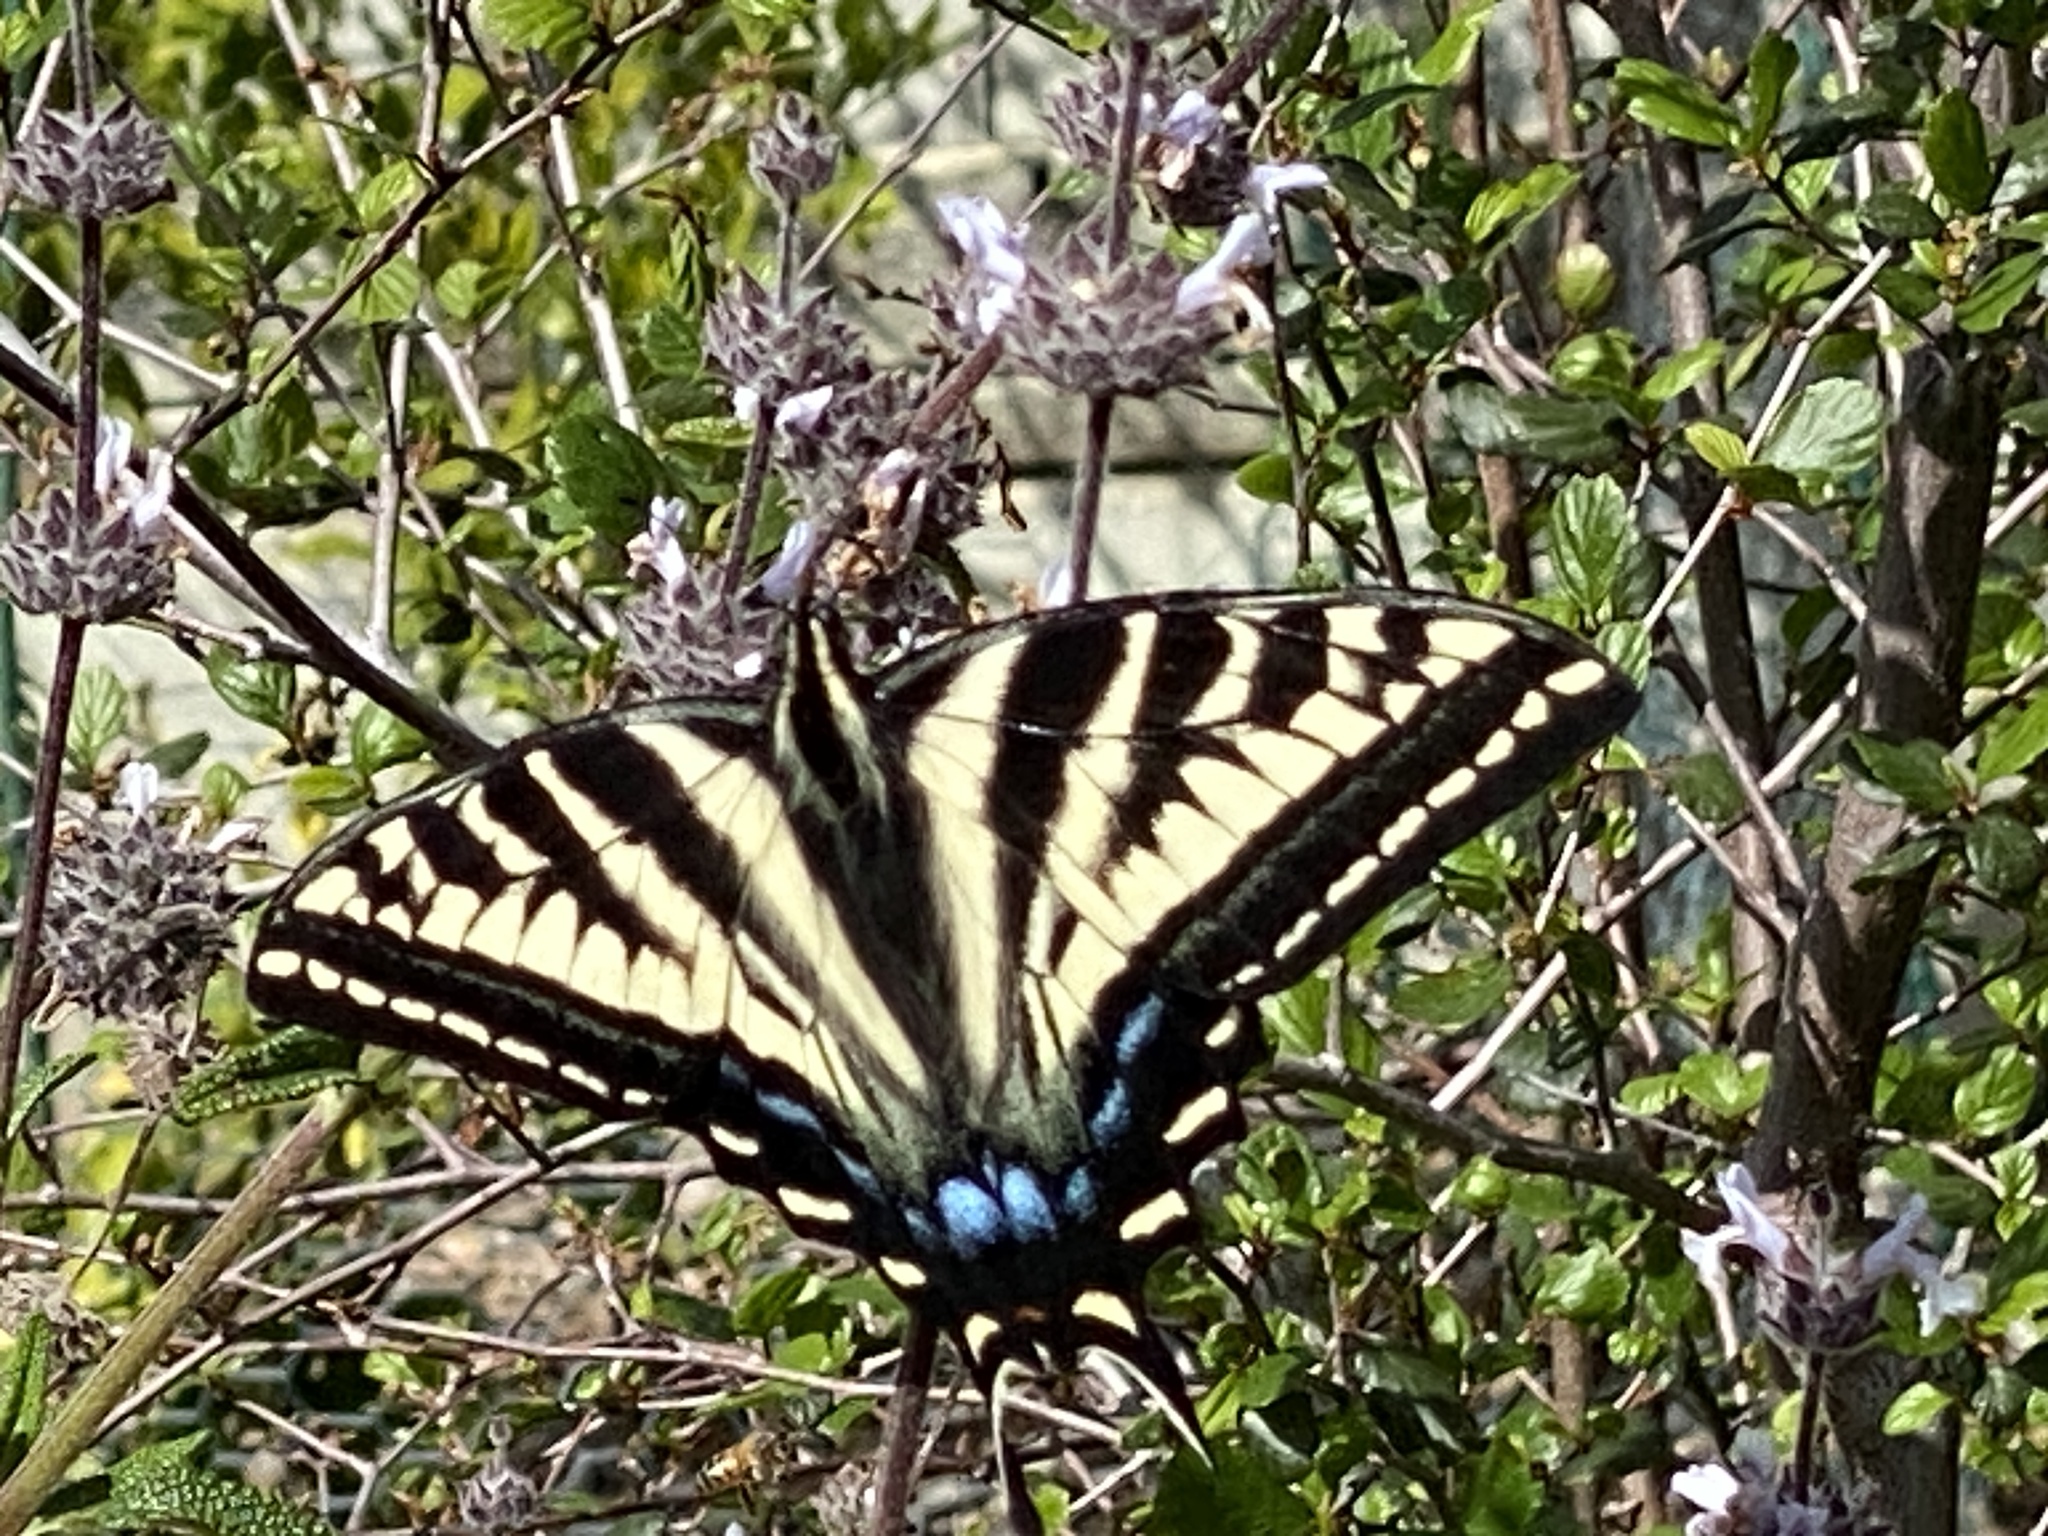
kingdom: Animalia
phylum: Arthropoda
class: Insecta
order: Lepidoptera
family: Papilionidae
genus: Papilio
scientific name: Papilio eurymedon
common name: Pale tiger swallowtail
